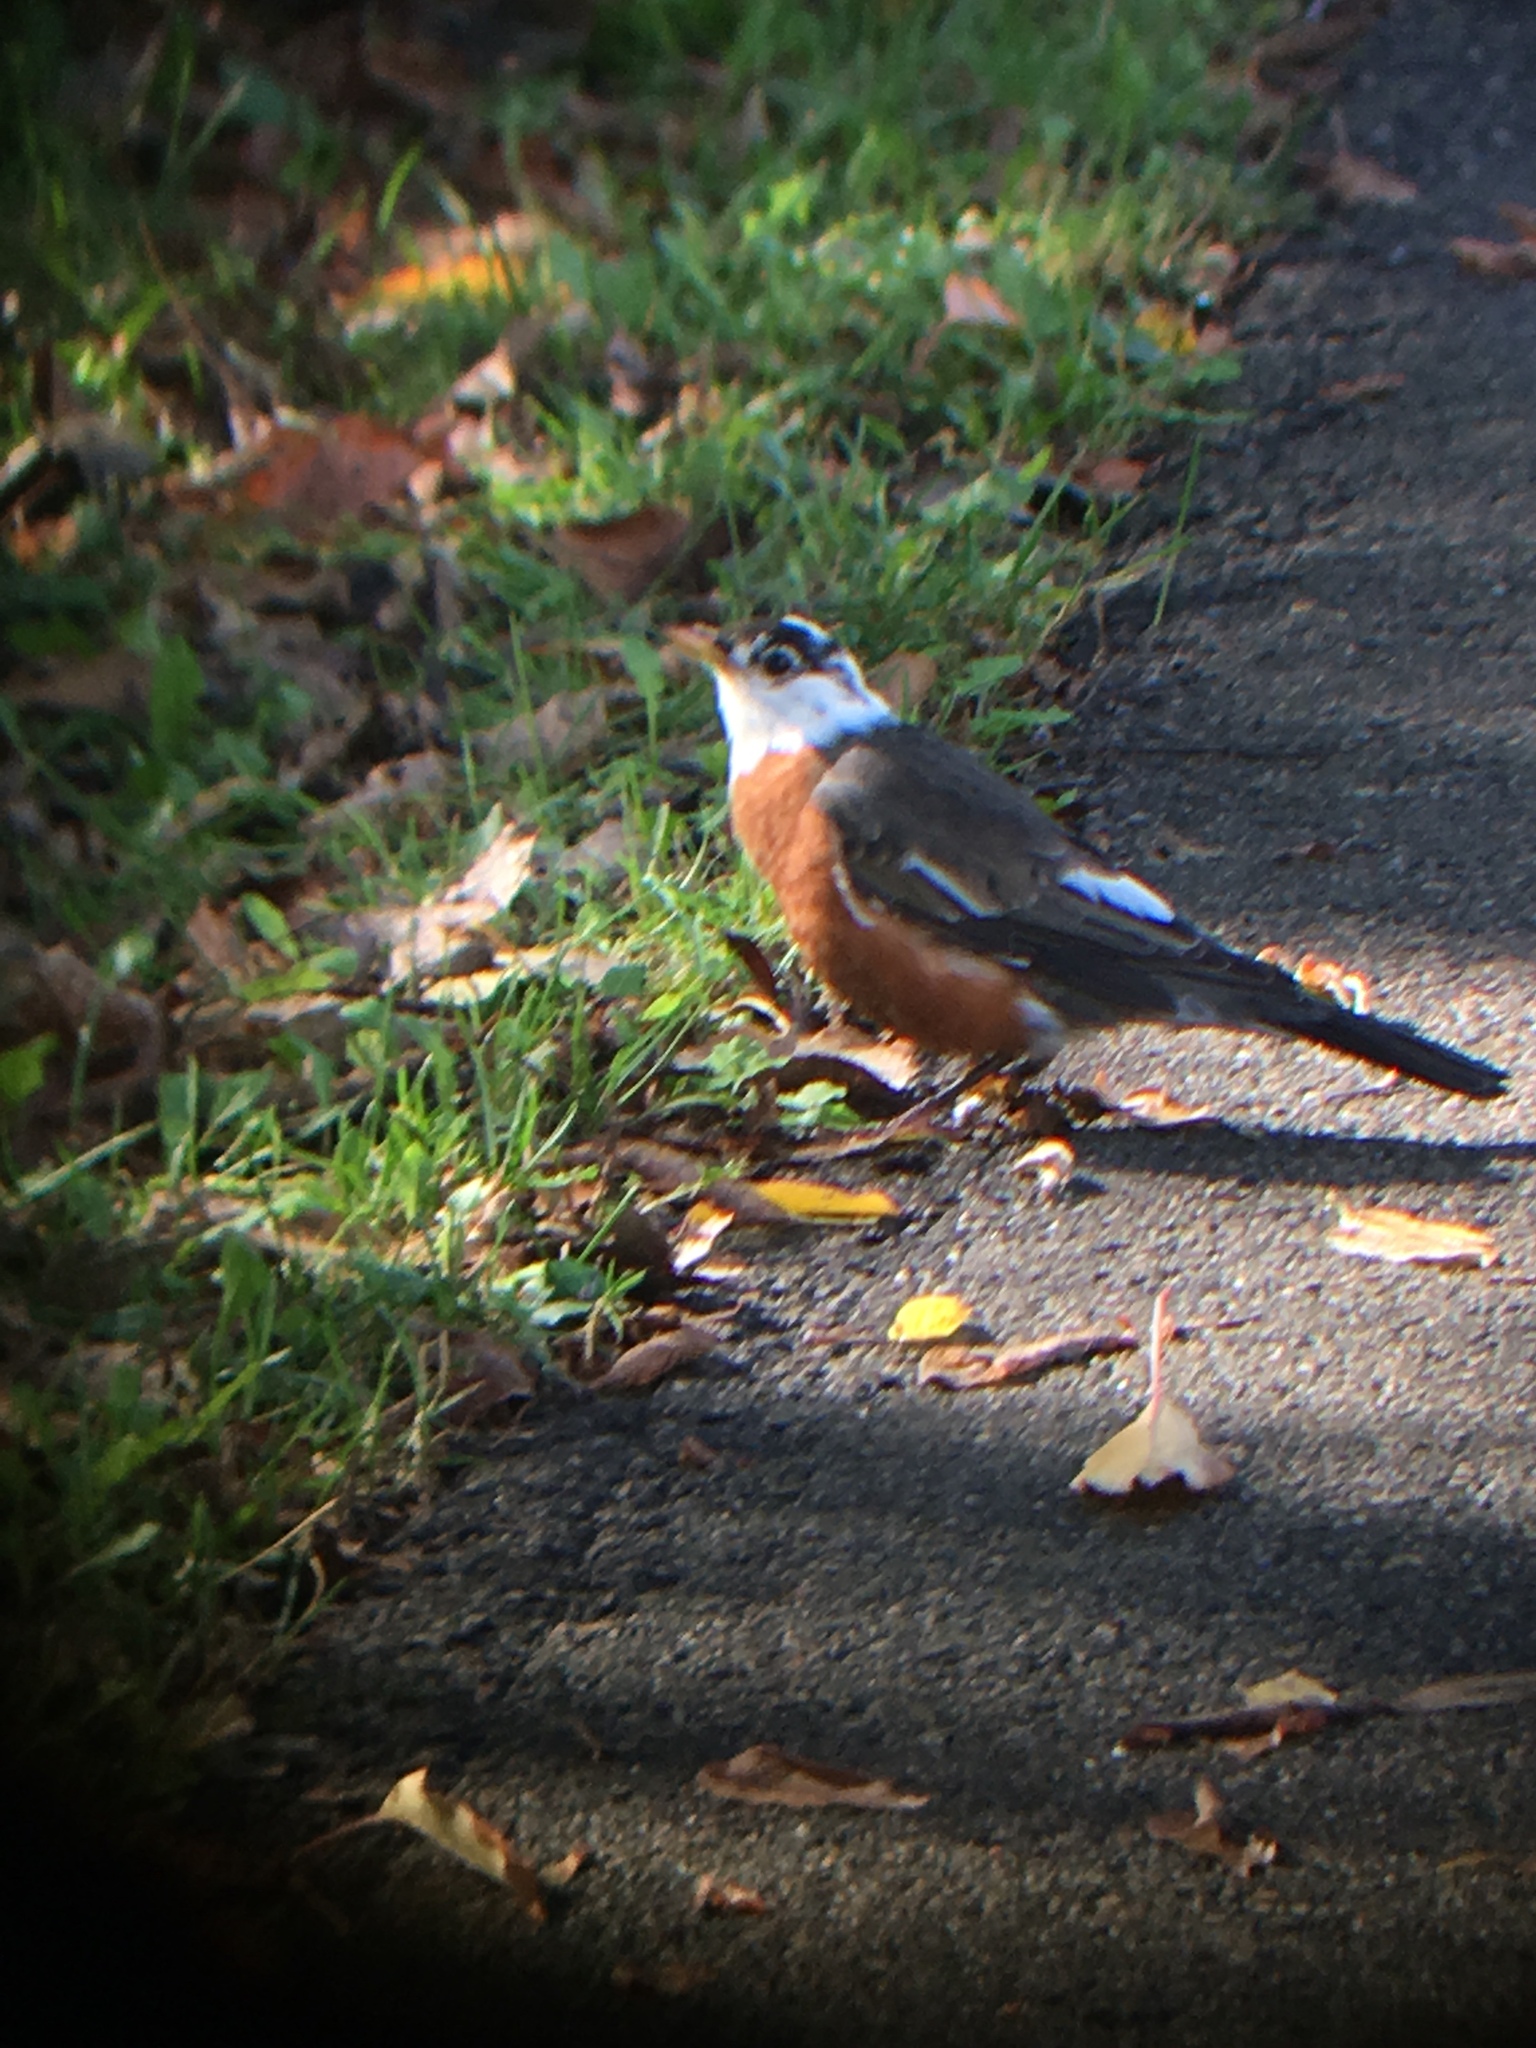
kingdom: Animalia
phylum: Chordata
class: Aves
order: Passeriformes
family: Turdidae
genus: Turdus
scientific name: Turdus migratorius
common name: American robin
